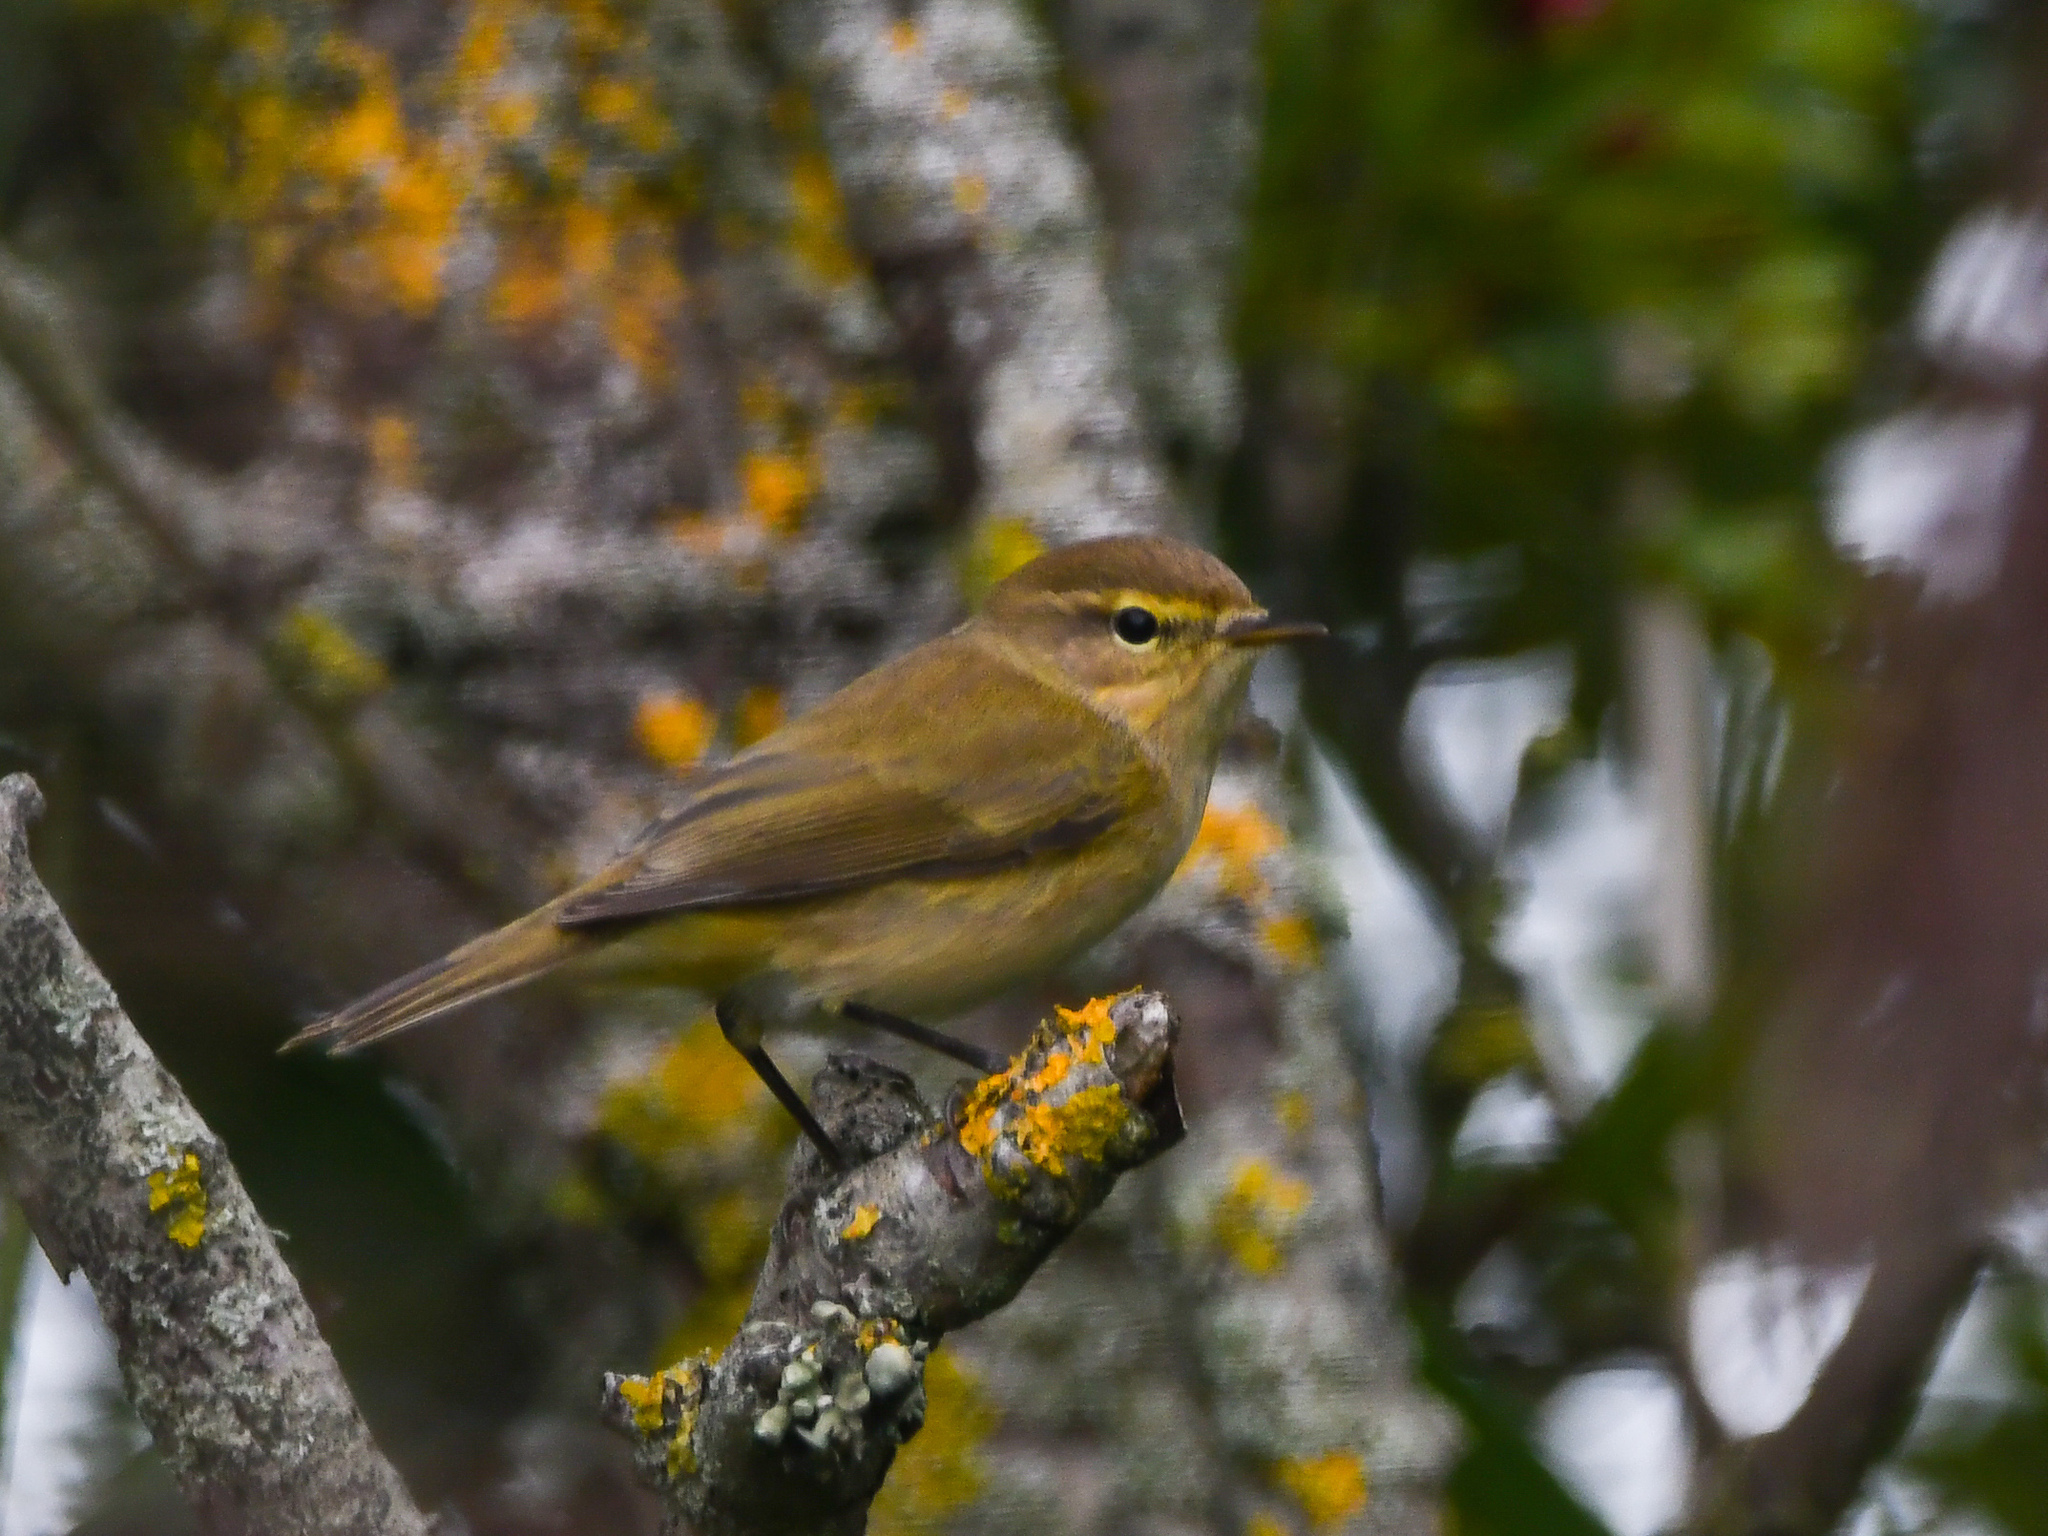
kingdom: Animalia
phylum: Chordata
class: Aves
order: Passeriformes
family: Phylloscopidae
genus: Phylloscopus
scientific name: Phylloscopus collybita
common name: Common chiffchaff
